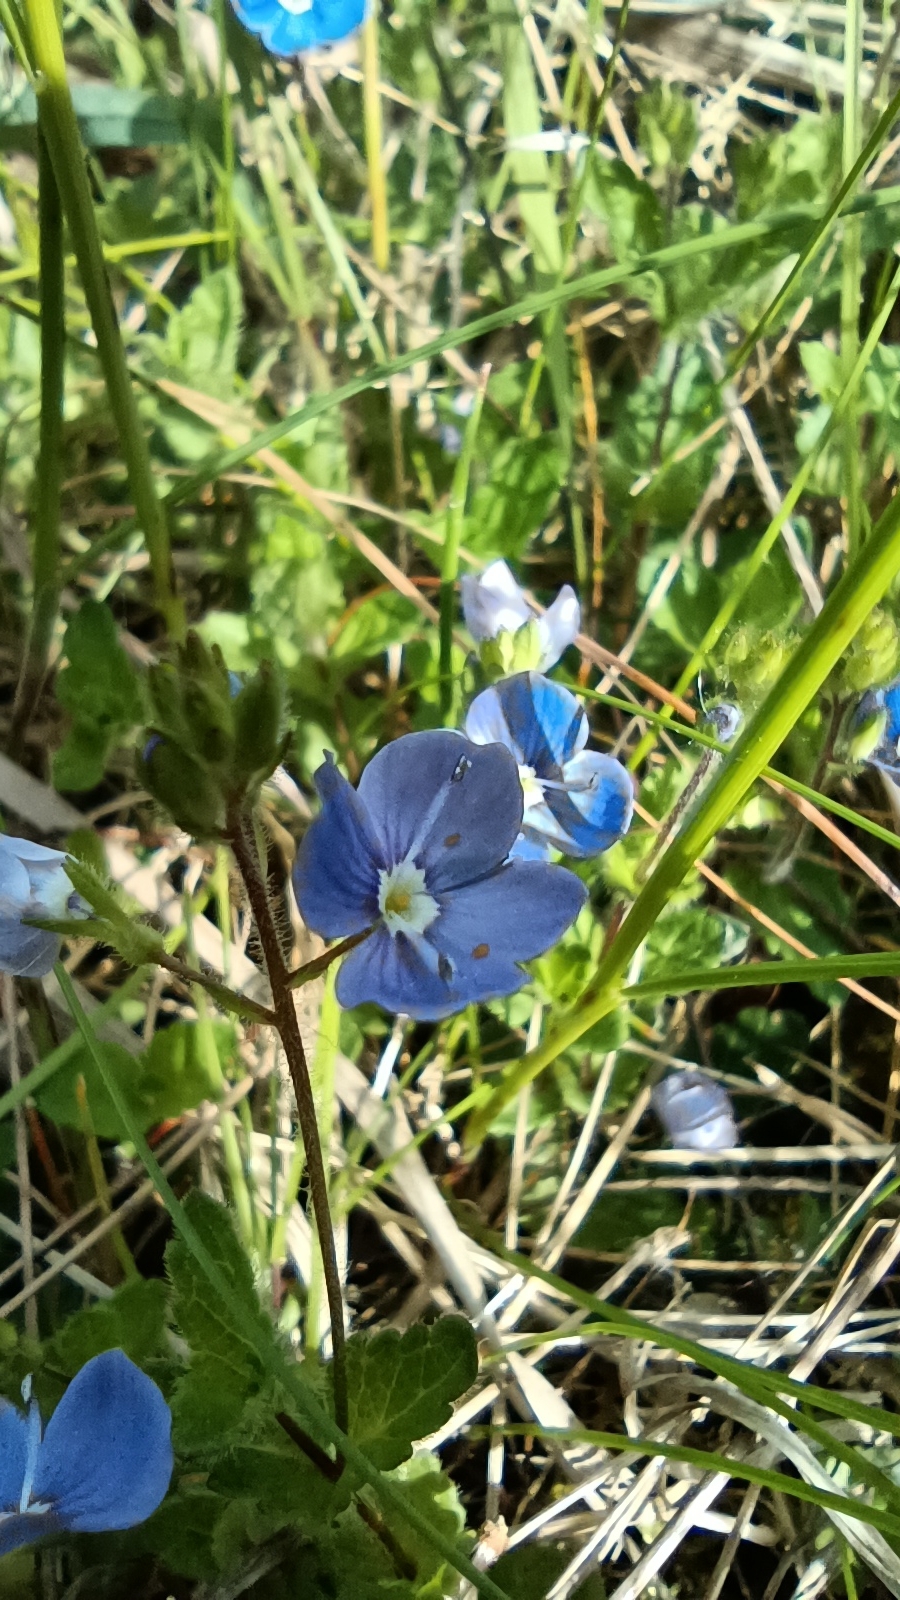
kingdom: Plantae
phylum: Tracheophyta
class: Magnoliopsida
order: Lamiales
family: Plantaginaceae
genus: Veronica
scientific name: Veronica chamaedrys
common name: Germander speedwell
